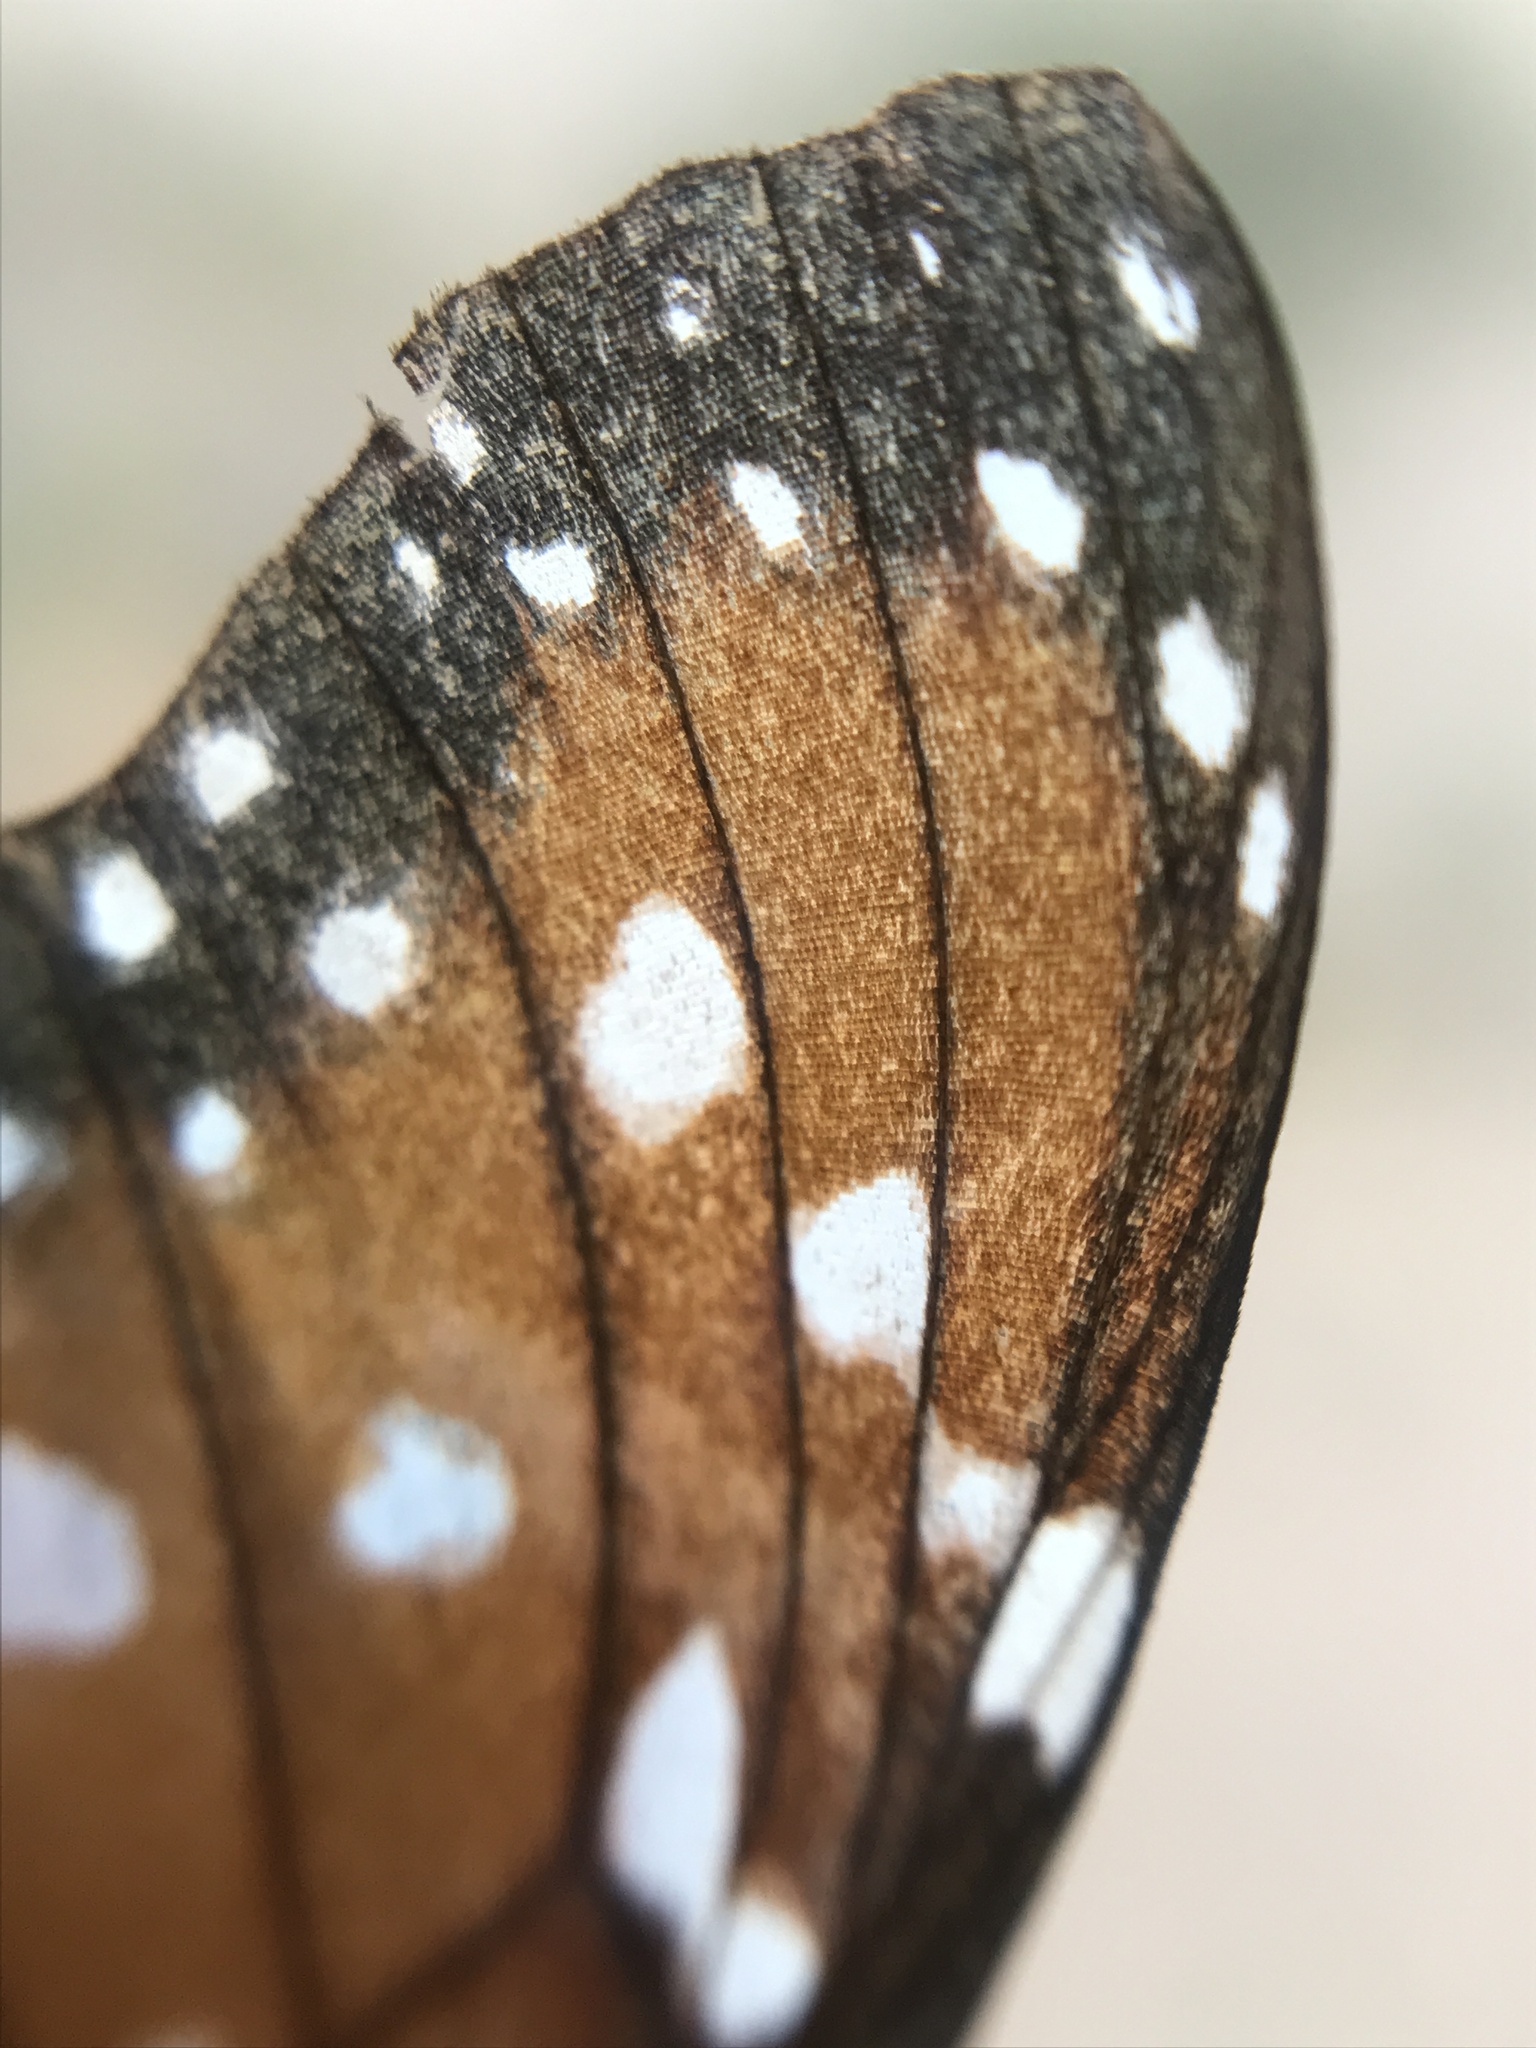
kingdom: Animalia
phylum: Arthropoda
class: Insecta
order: Lepidoptera
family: Nymphalidae
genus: Danaus
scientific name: Danaus eresimus
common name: Soldier
